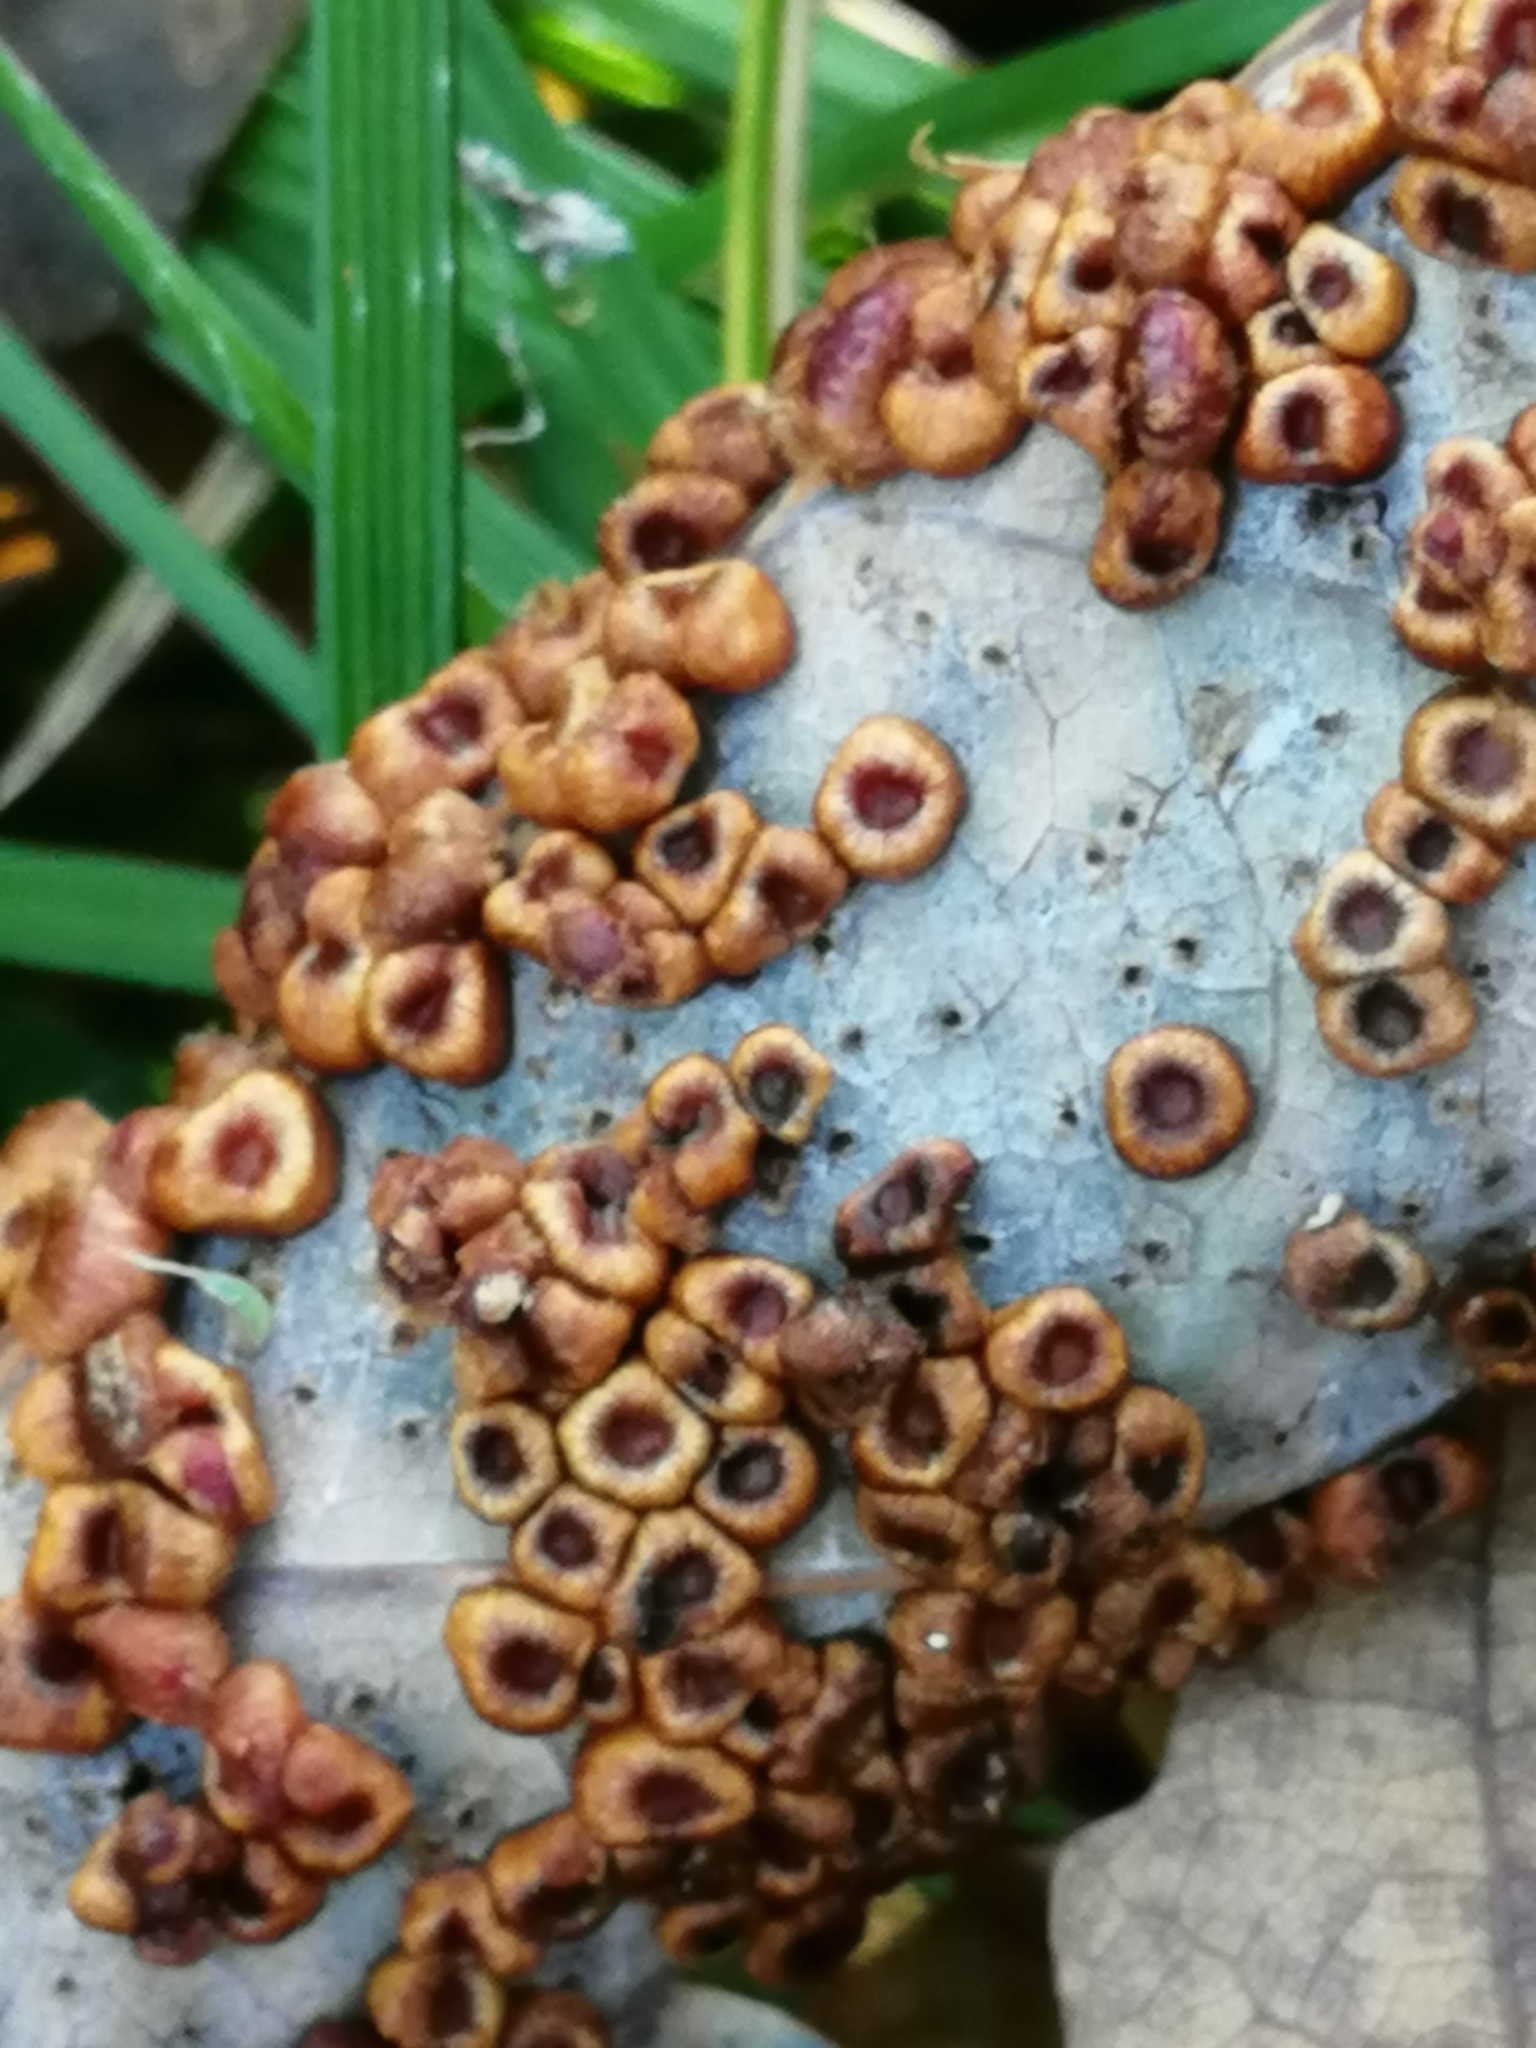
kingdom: Animalia
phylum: Arthropoda
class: Insecta
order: Hymenoptera
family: Cynipidae
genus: Neuroterus
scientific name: Neuroterus numismalis
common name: Silk-button spangle gall
